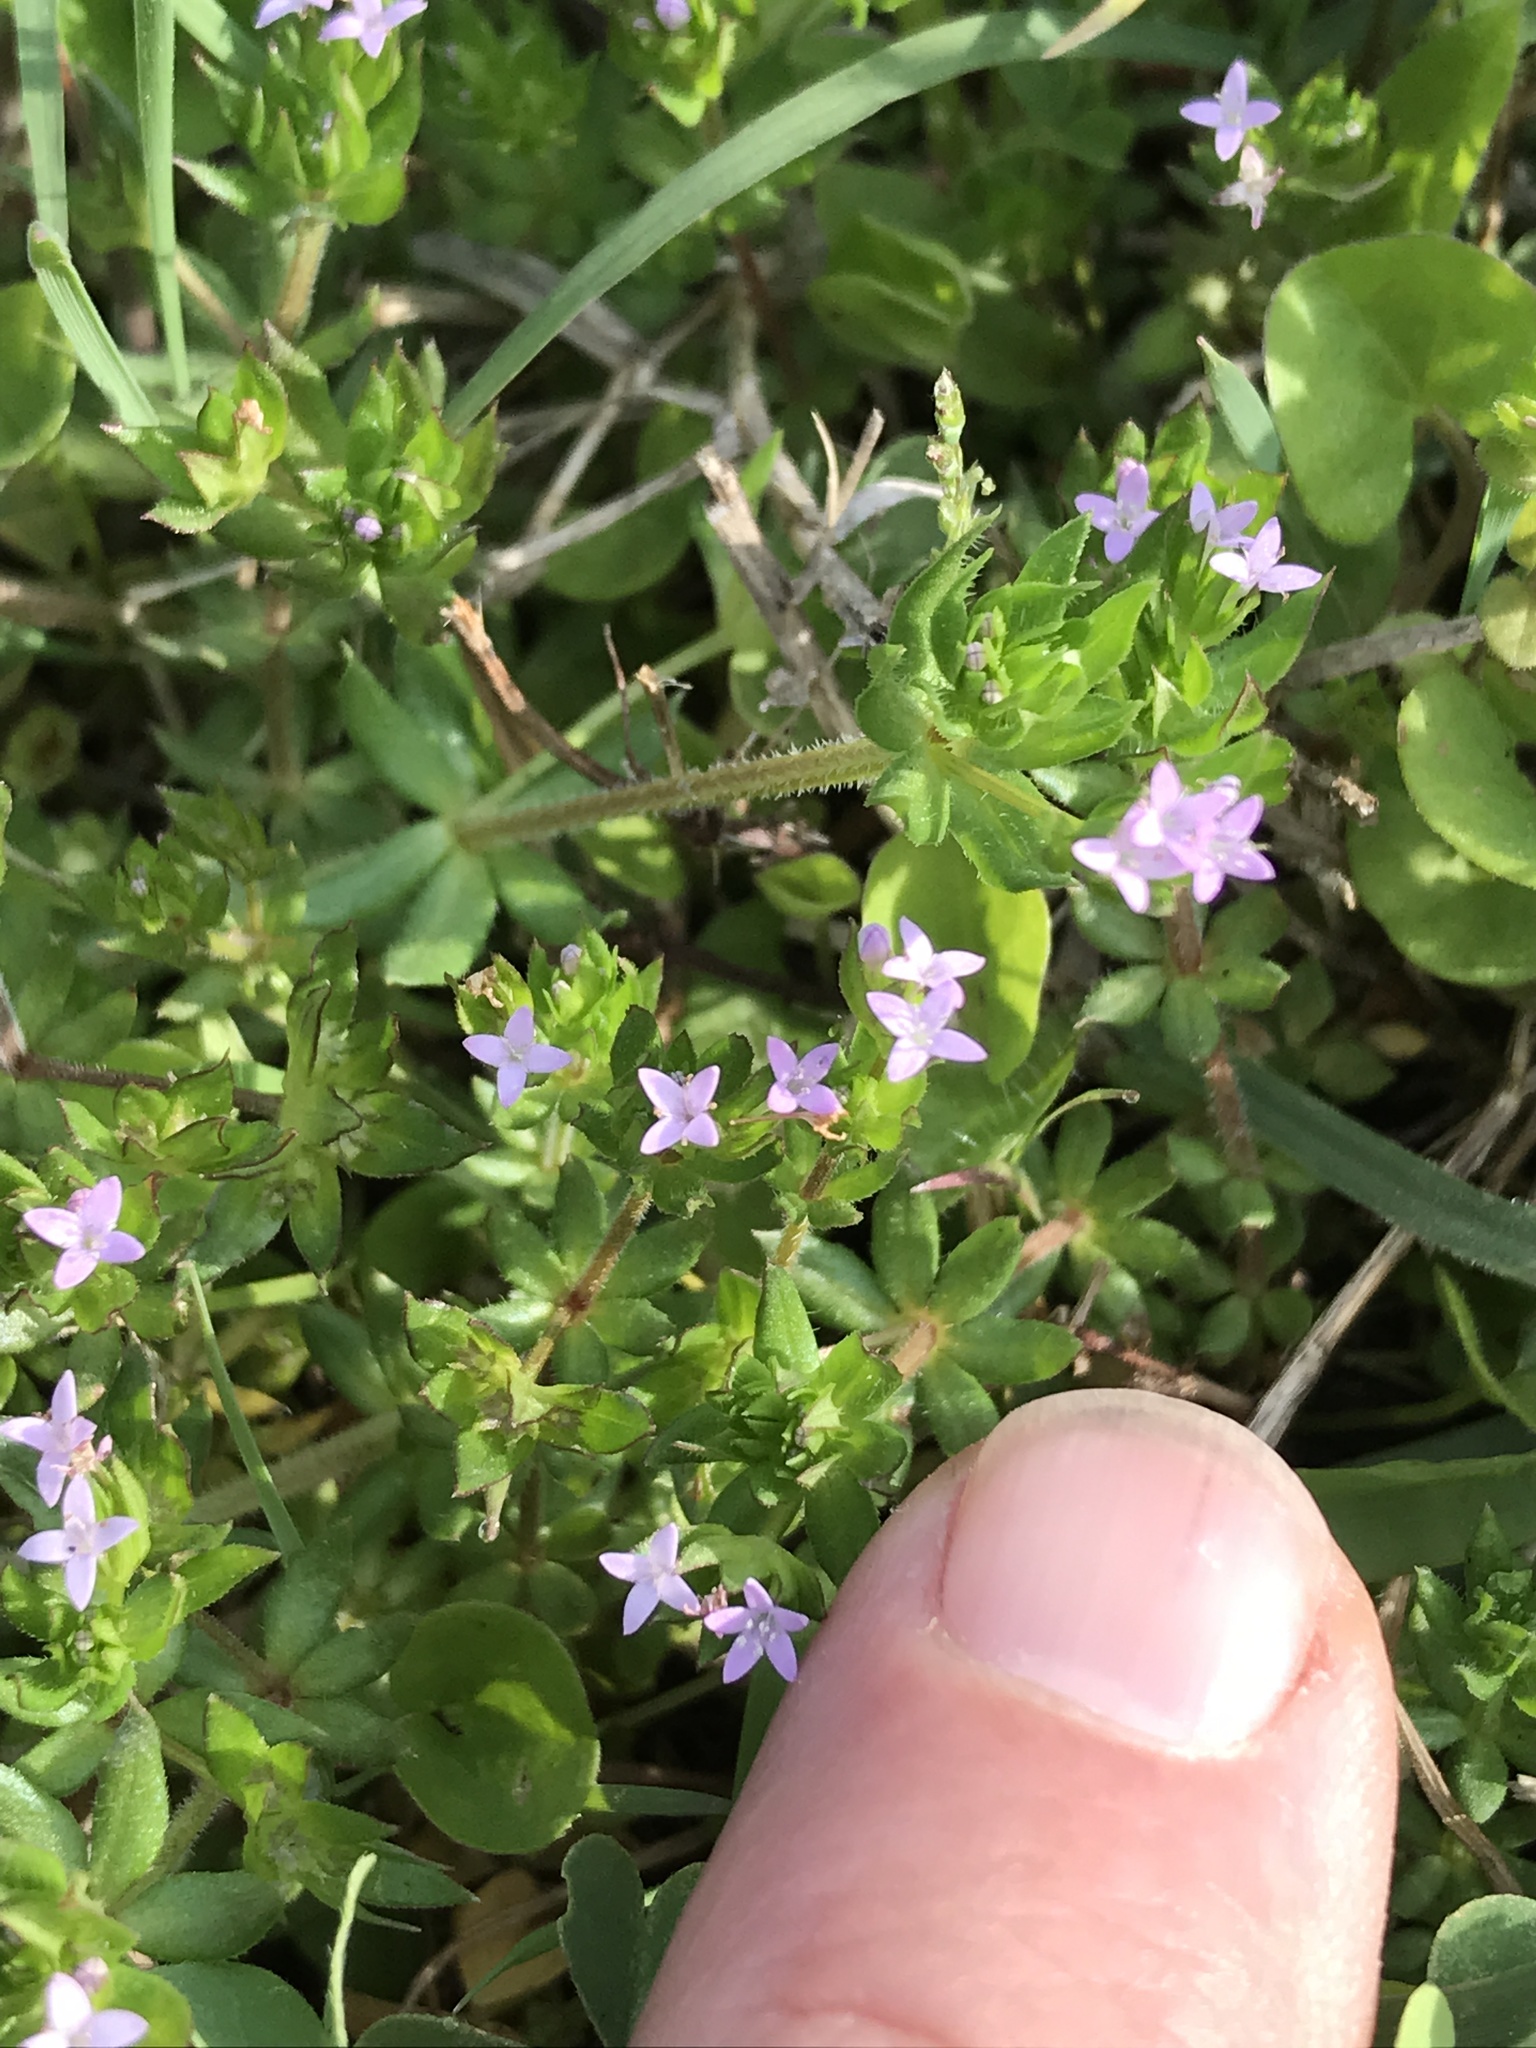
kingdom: Plantae
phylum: Tracheophyta
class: Magnoliopsida
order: Gentianales
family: Rubiaceae
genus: Sherardia
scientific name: Sherardia arvensis
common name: Field madder
